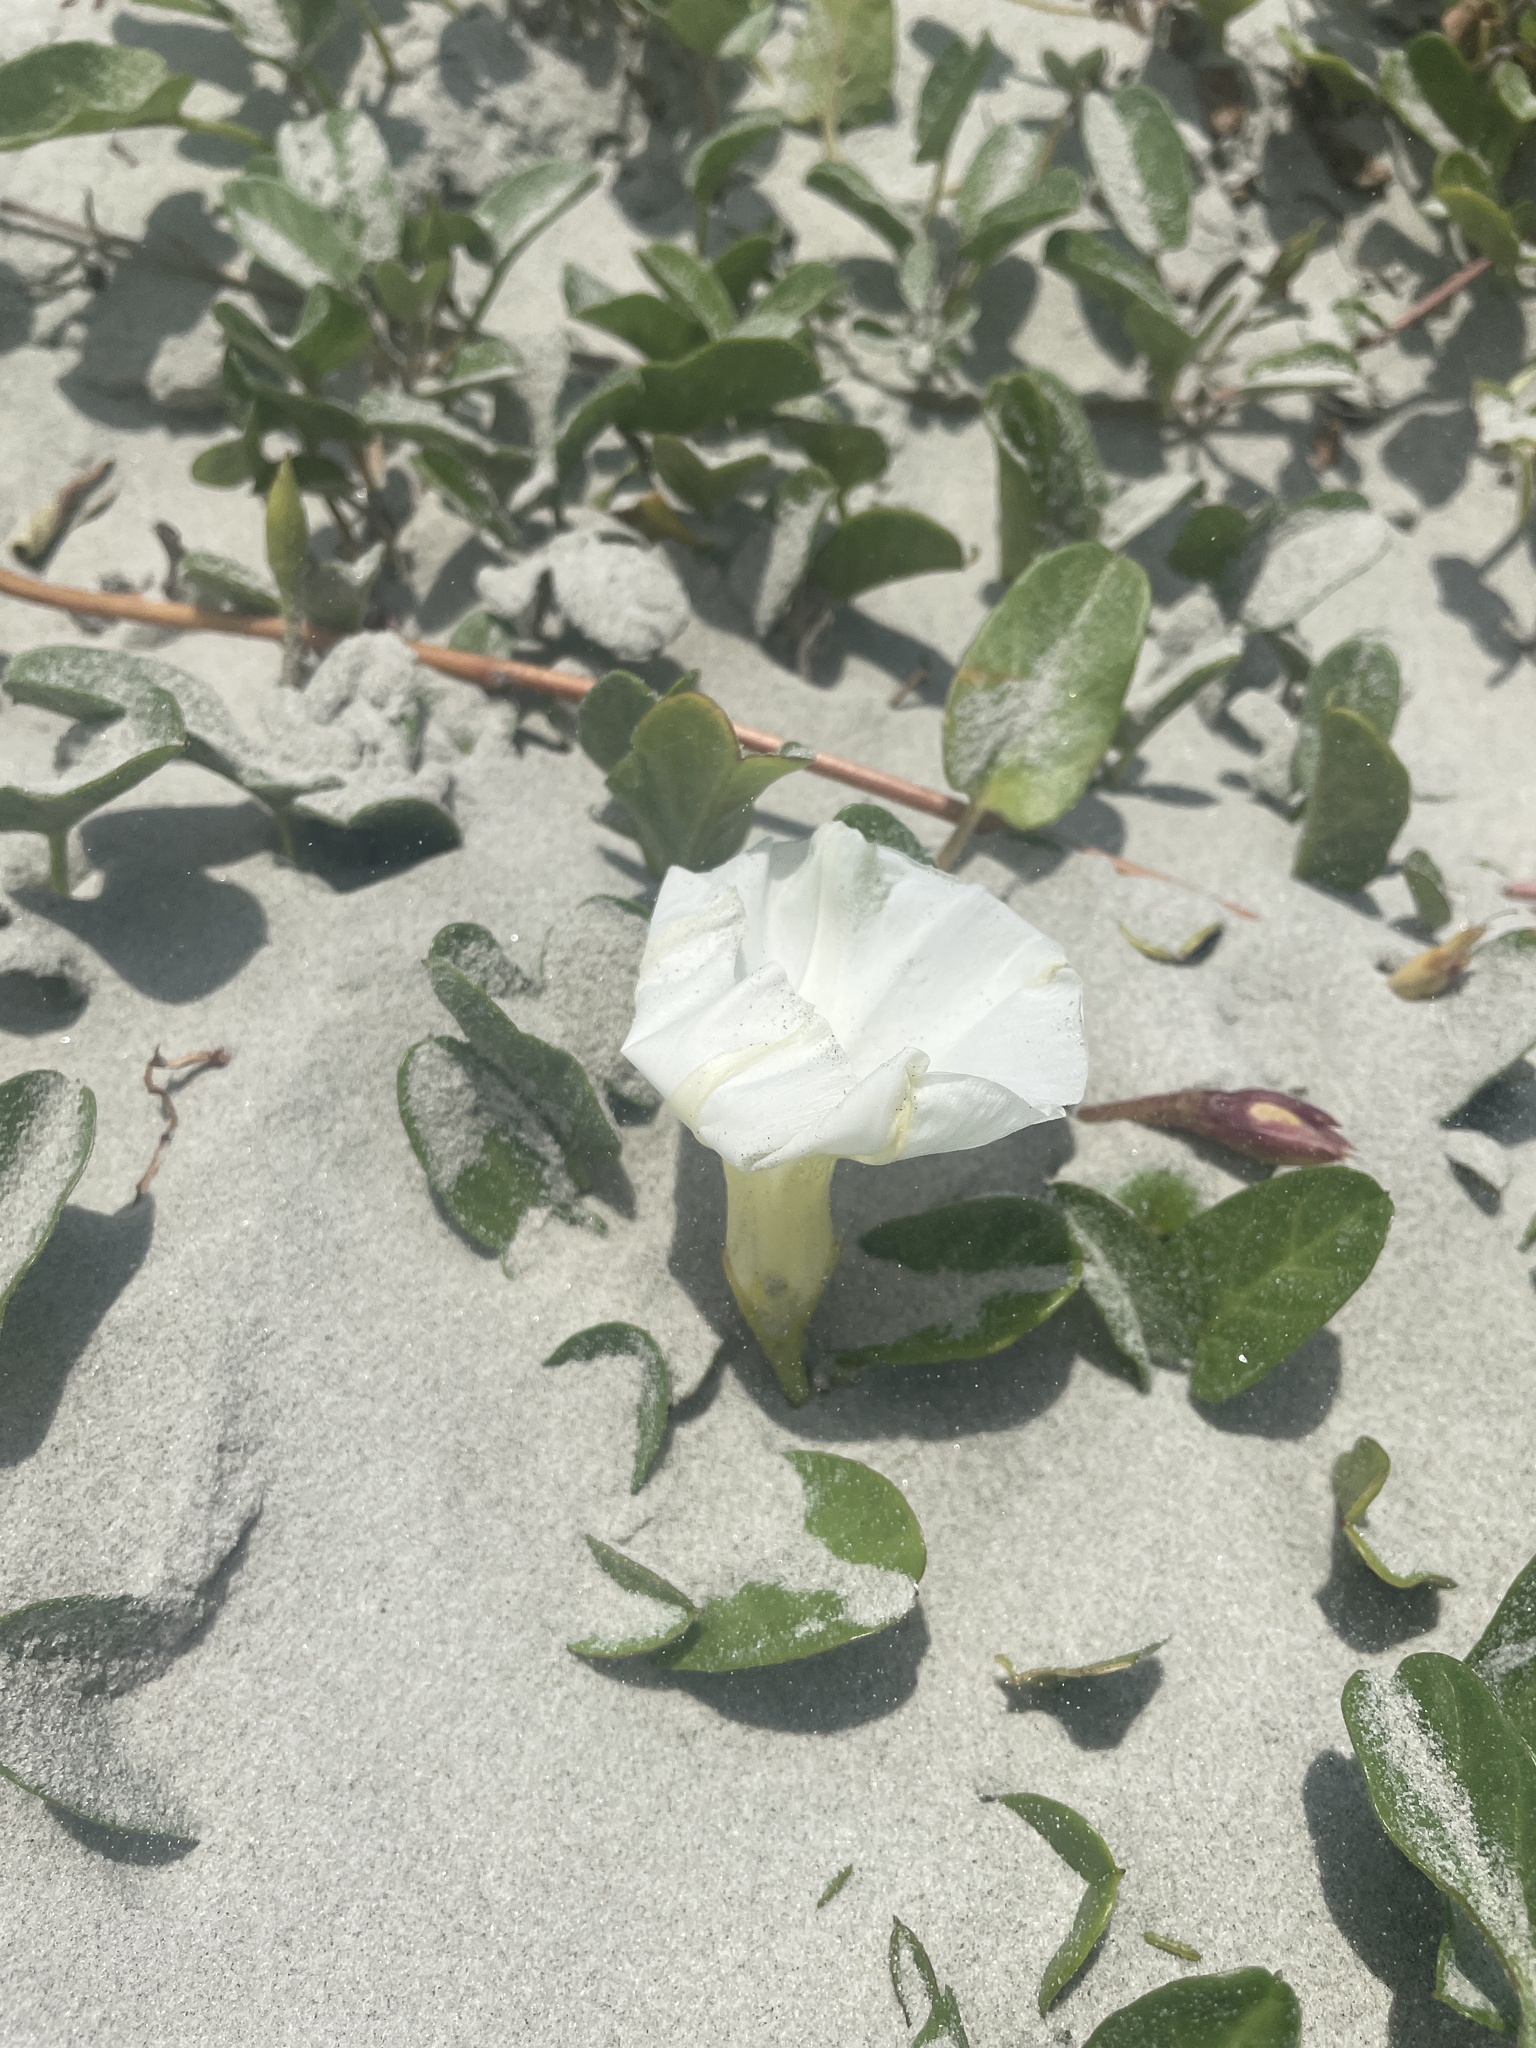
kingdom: Plantae
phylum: Tracheophyta
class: Magnoliopsida
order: Solanales
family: Convolvulaceae
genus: Ipomoea
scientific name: Ipomoea imperati
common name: Fiddle-leaf morning-glory
